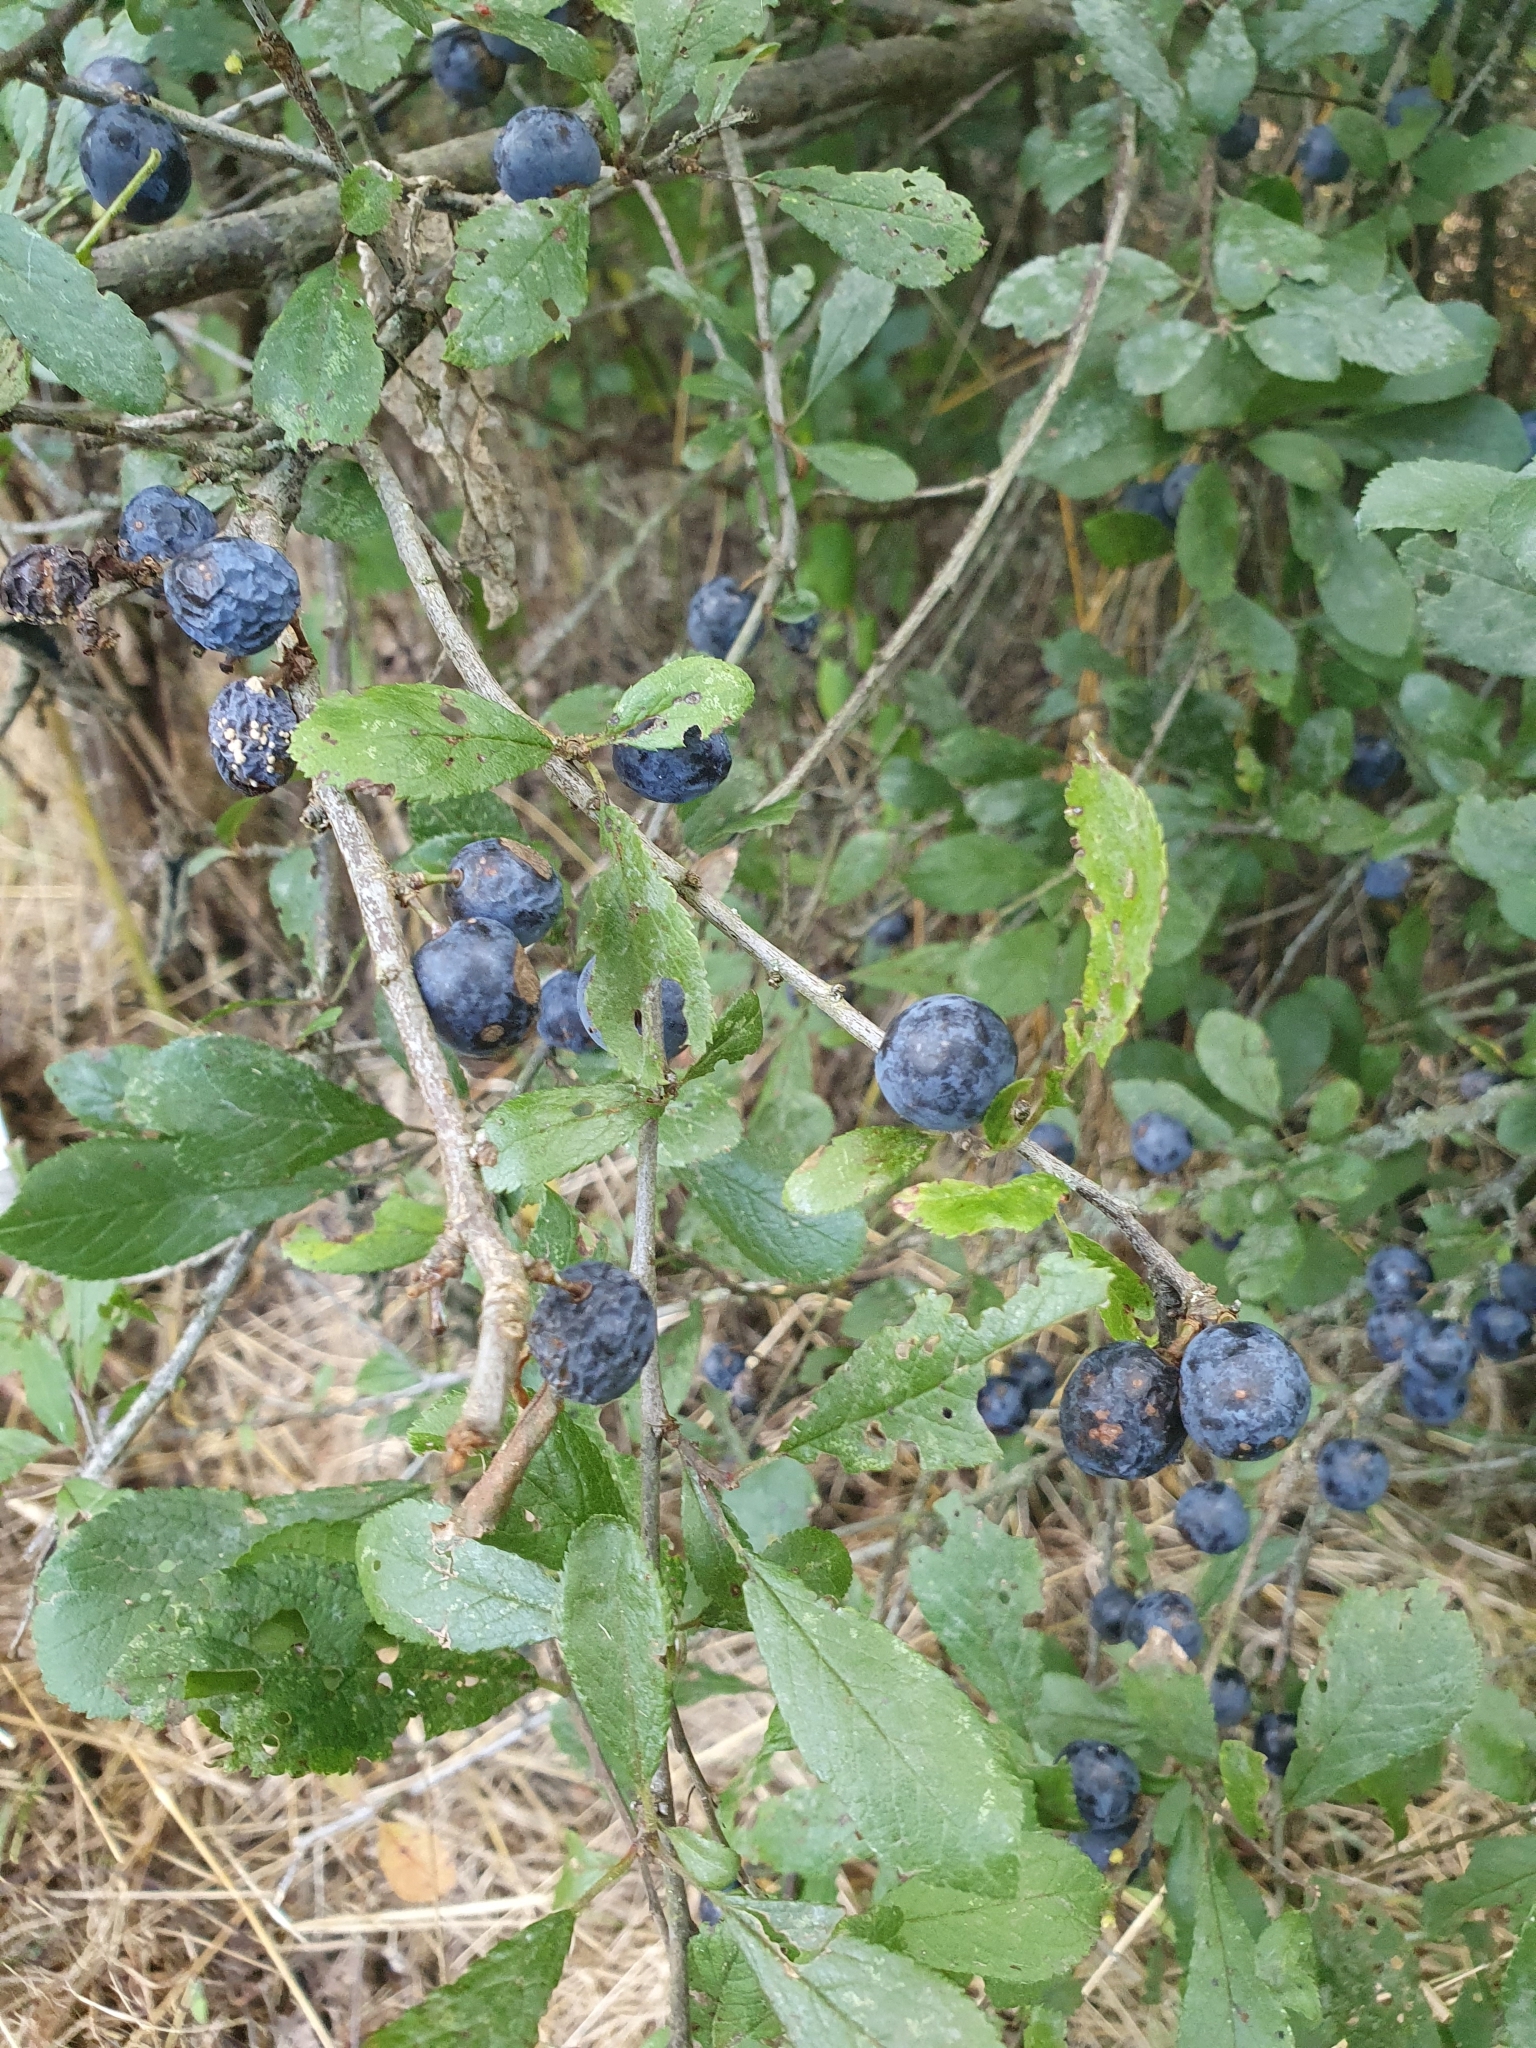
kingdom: Plantae
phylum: Tracheophyta
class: Magnoliopsida
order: Rosales
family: Rosaceae
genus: Prunus
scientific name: Prunus spinosa
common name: Blackthorn
